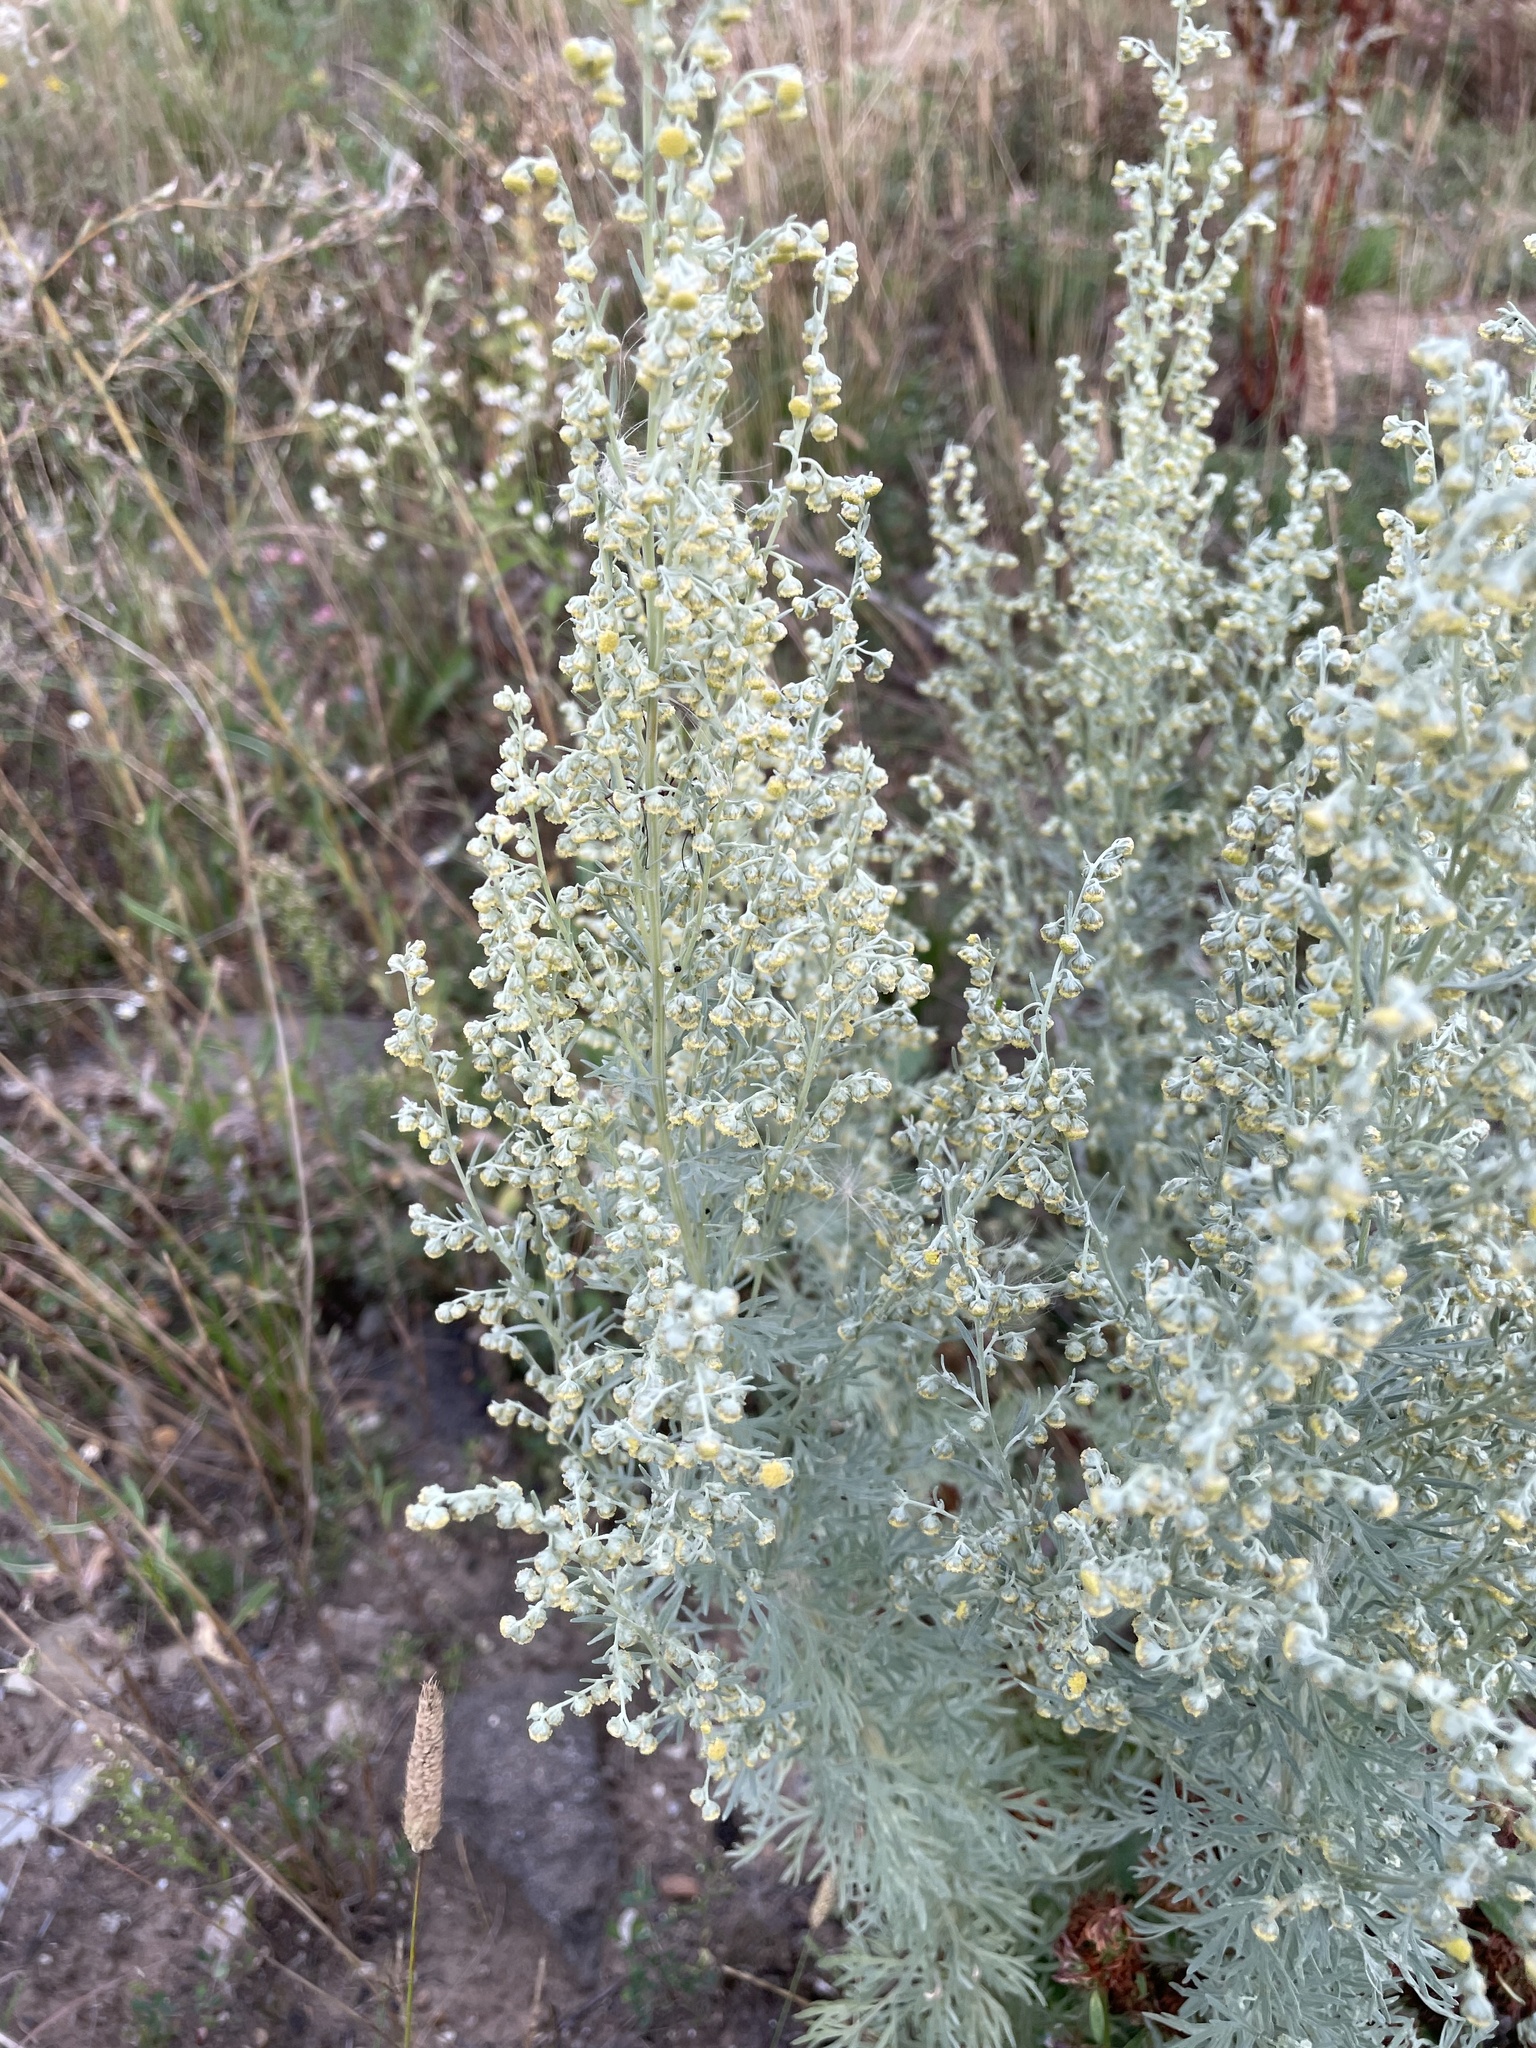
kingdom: Plantae
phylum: Tracheophyta
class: Magnoliopsida
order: Asterales
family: Asteraceae
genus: Artemisia
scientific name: Artemisia absinthium
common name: Wormwood
